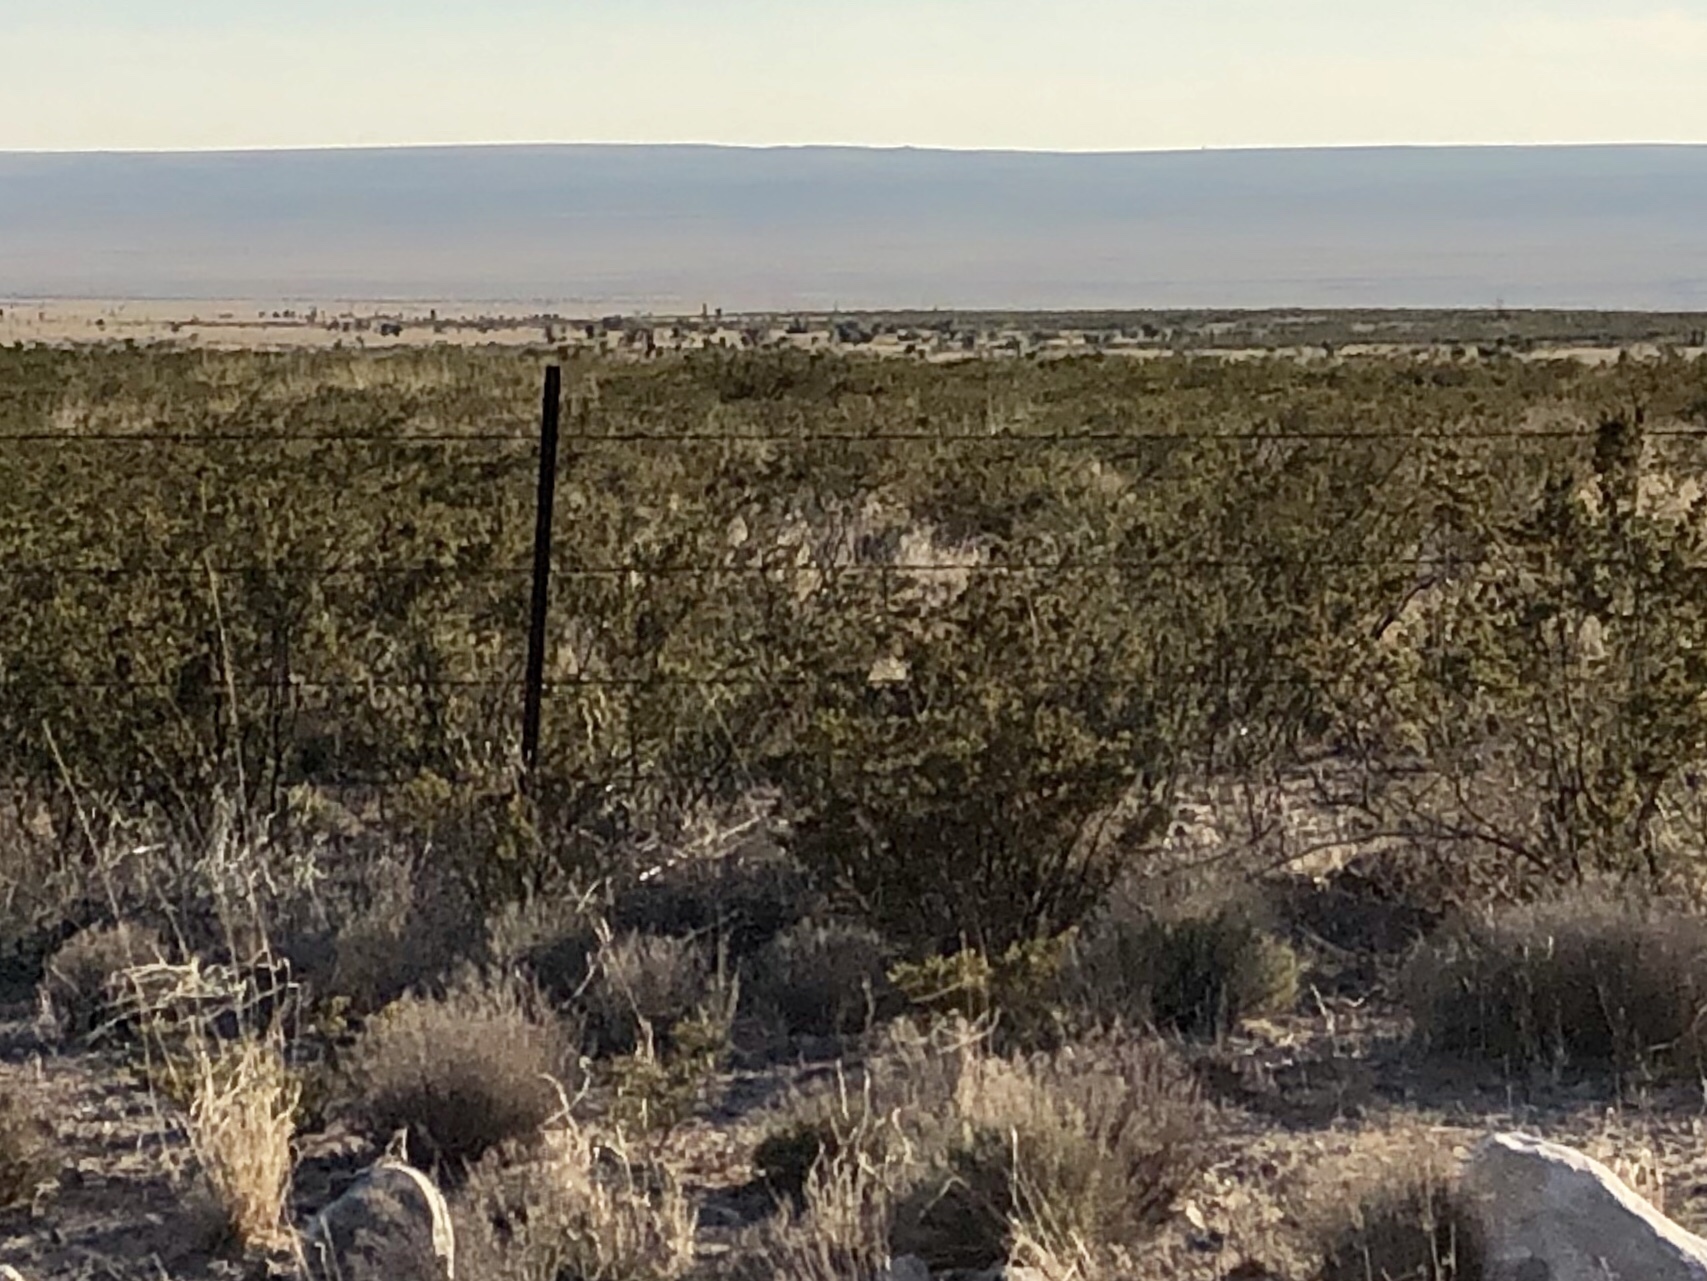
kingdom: Plantae
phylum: Tracheophyta
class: Magnoliopsida
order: Zygophyllales
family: Zygophyllaceae
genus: Larrea
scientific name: Larrea tridentata
